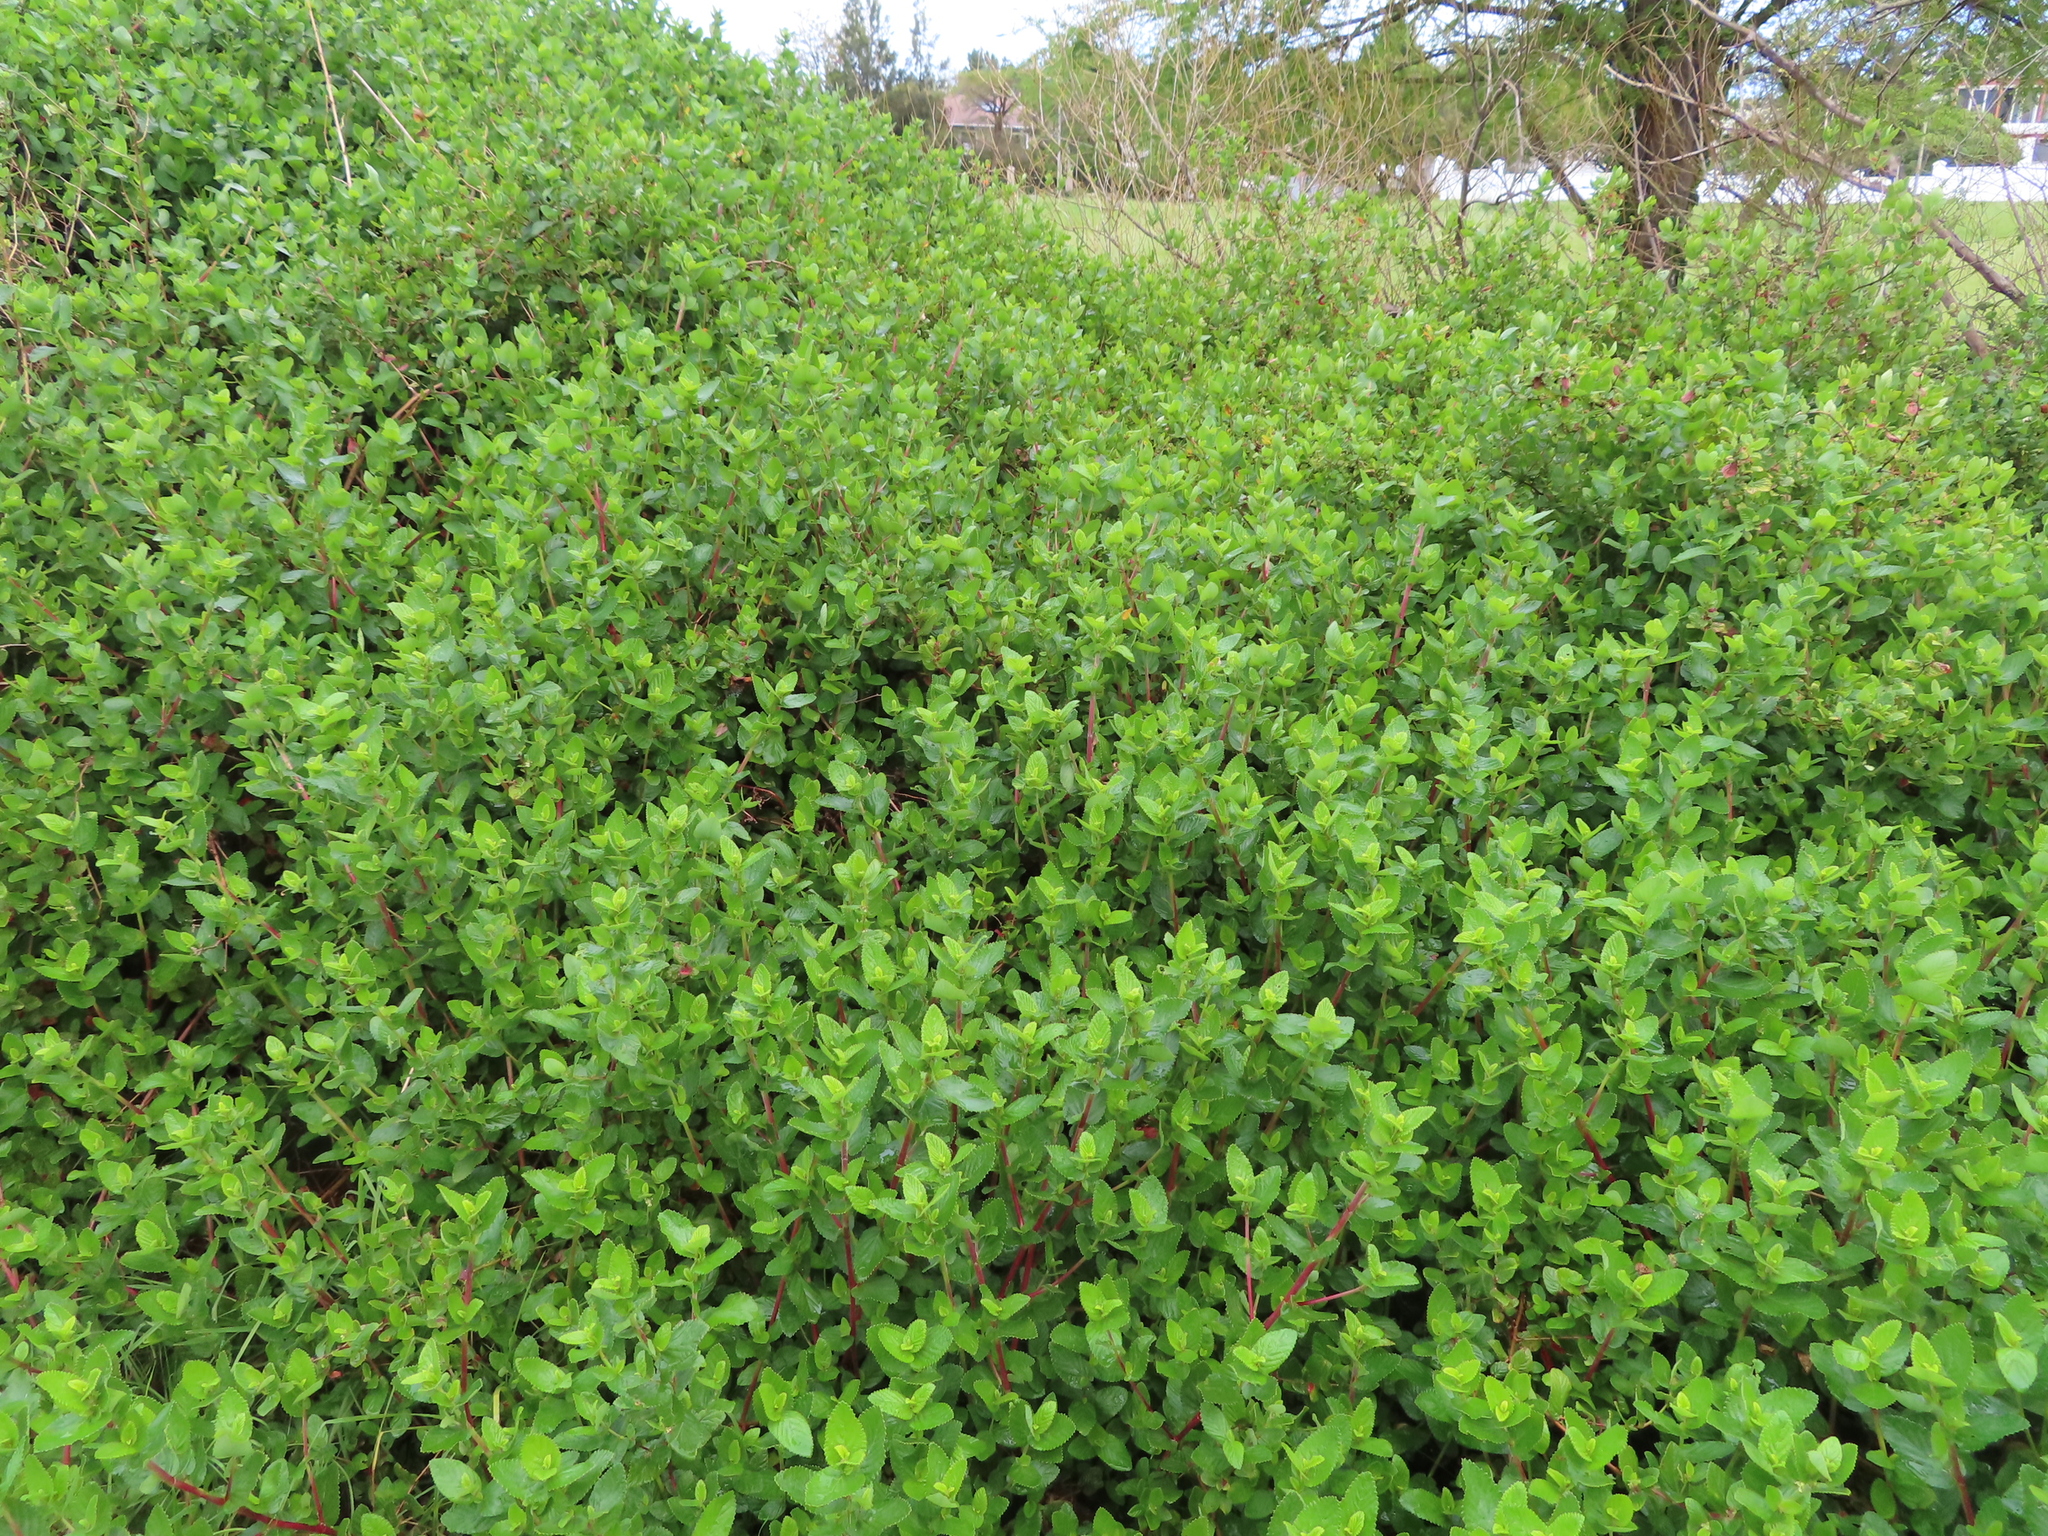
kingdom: Plantae
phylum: Tracheophyta
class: Magnoliopsida
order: Rosales
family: Rosaceae
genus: Cliffortia
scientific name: Cliffortia odorata
